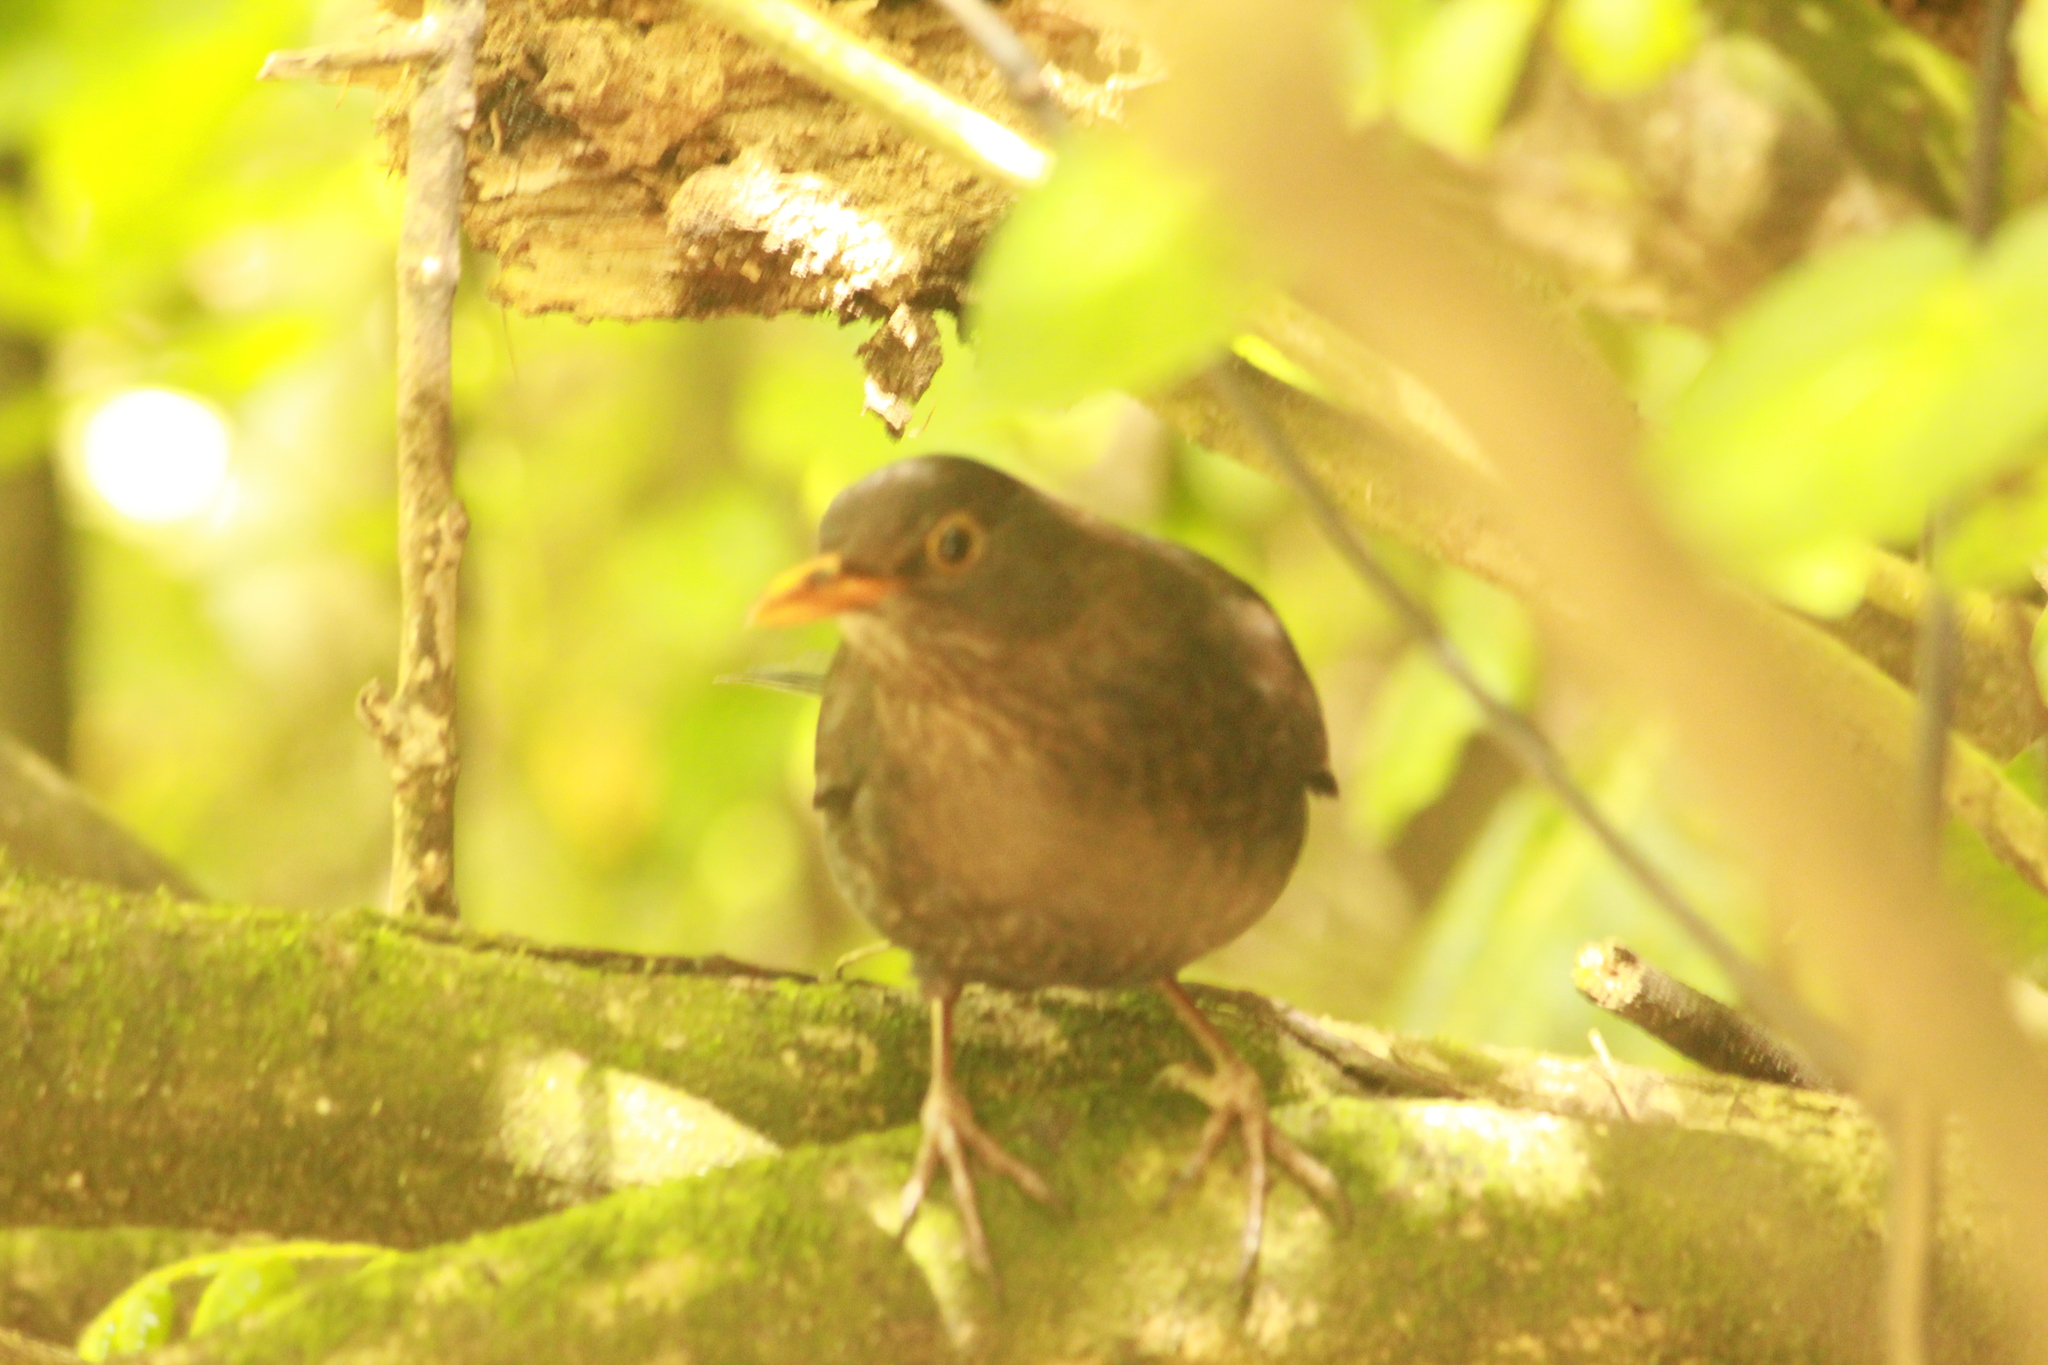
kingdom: Animalia
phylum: Chordata
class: Aves
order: Passeriformes
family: Turdidae
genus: Turdus
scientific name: Turdus merula
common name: Common blackbird
